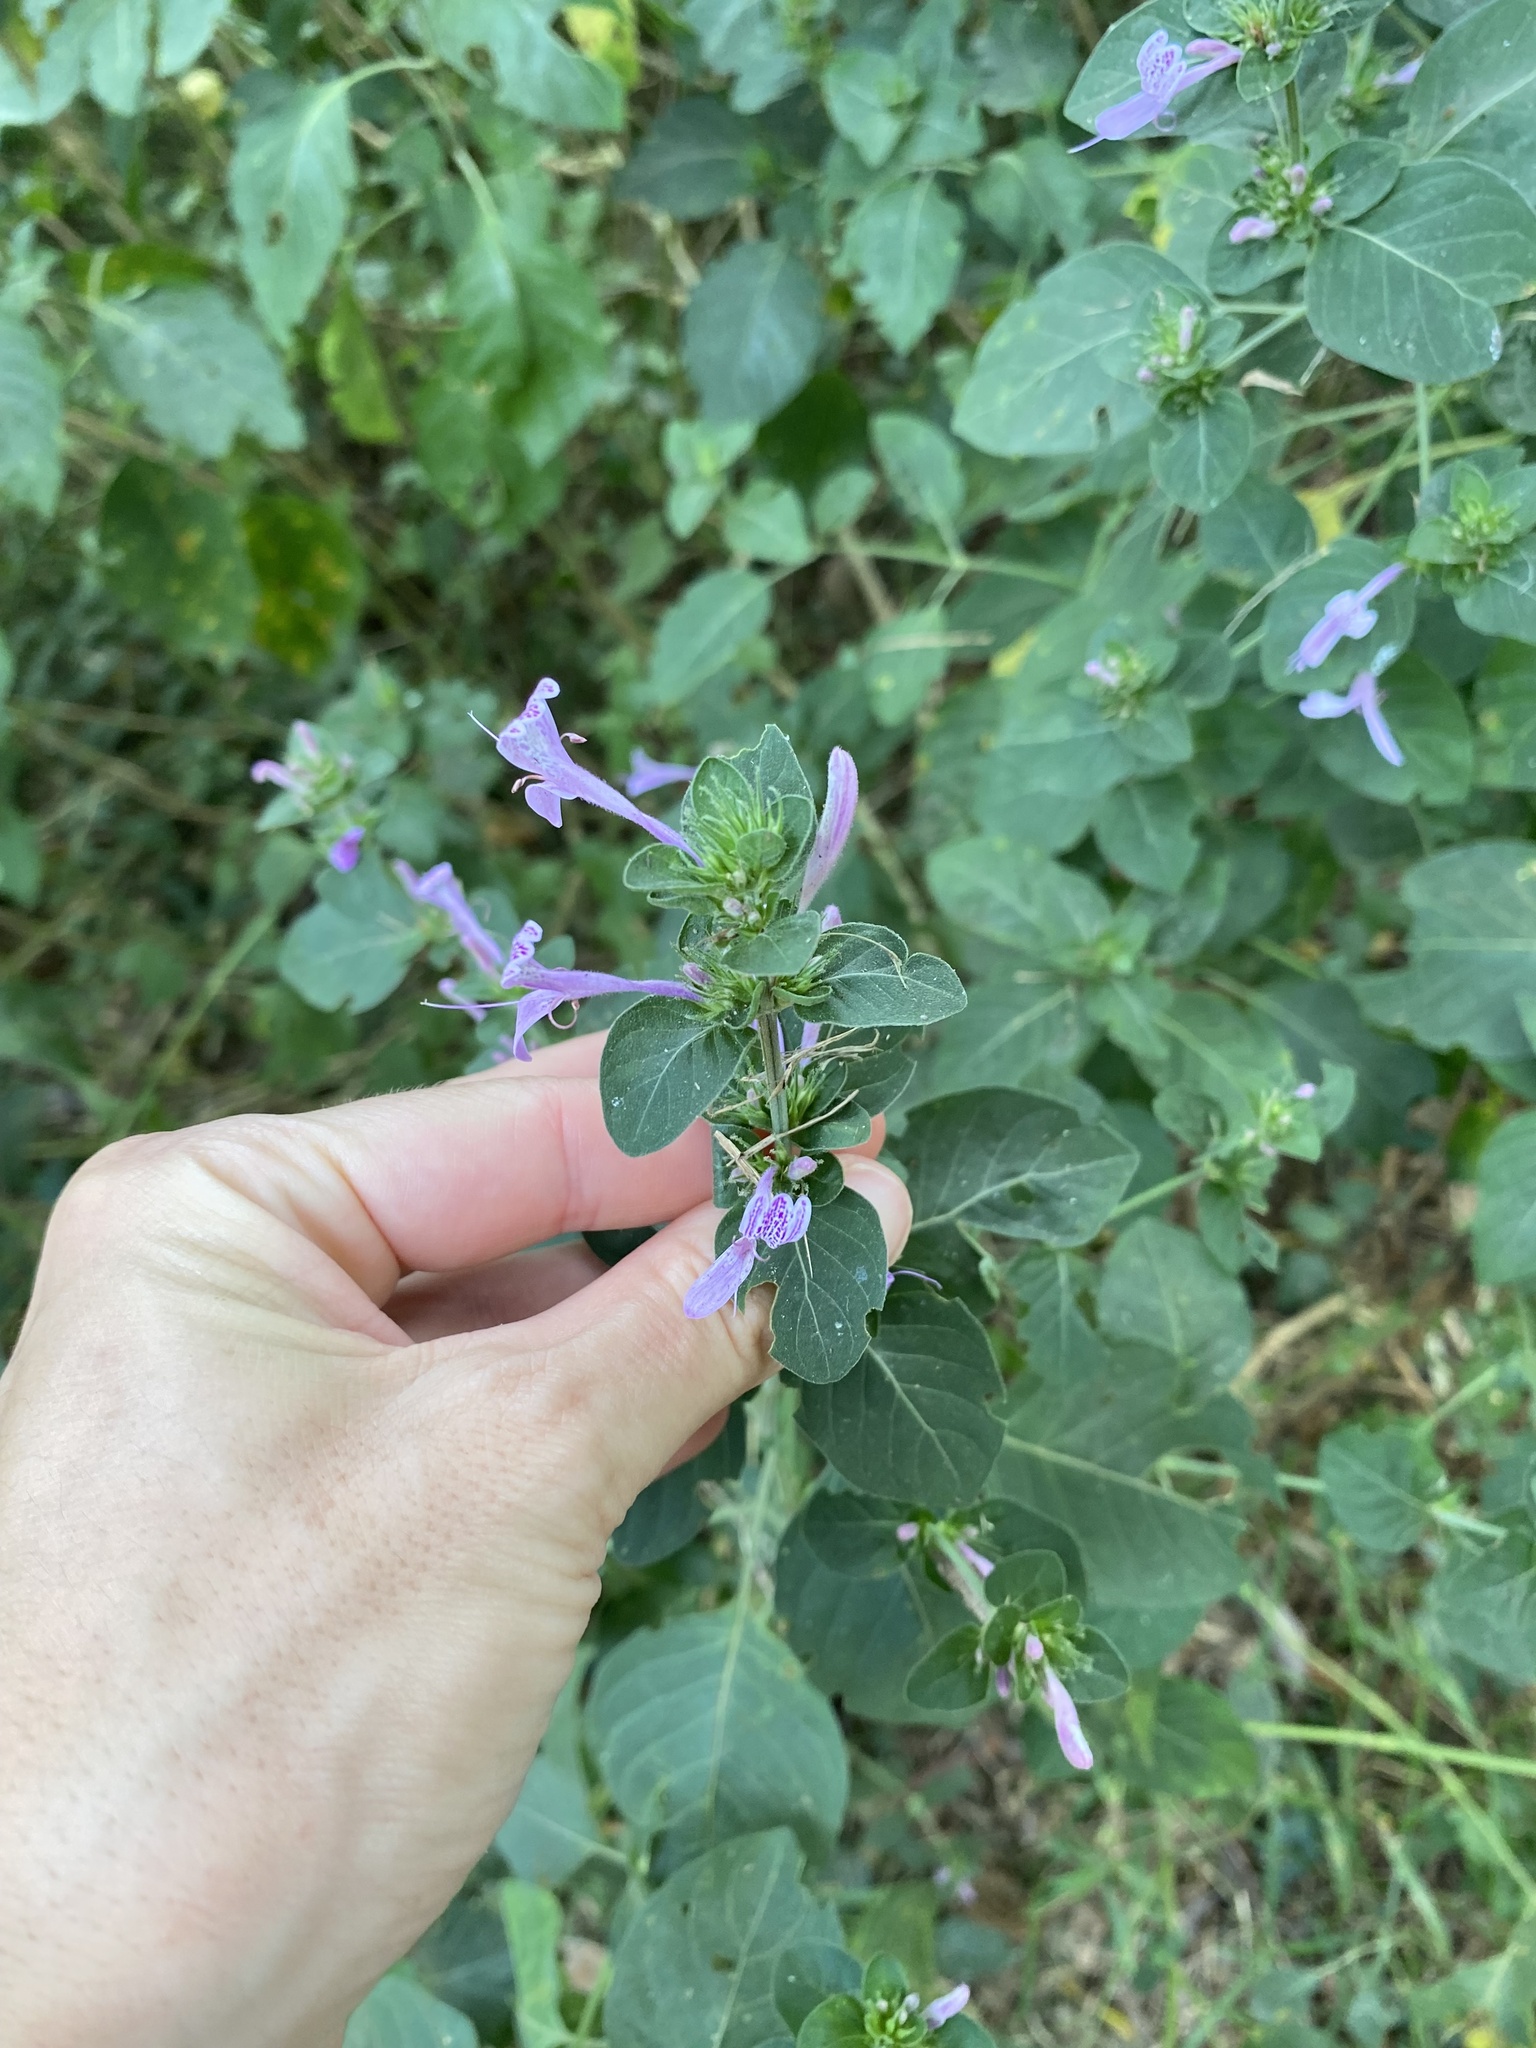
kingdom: Plantae
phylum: Tracheophyta
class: Magnoliopsida
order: Lamiales
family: Acanthaceae
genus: Hypoestes
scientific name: Hypoestes aristata
